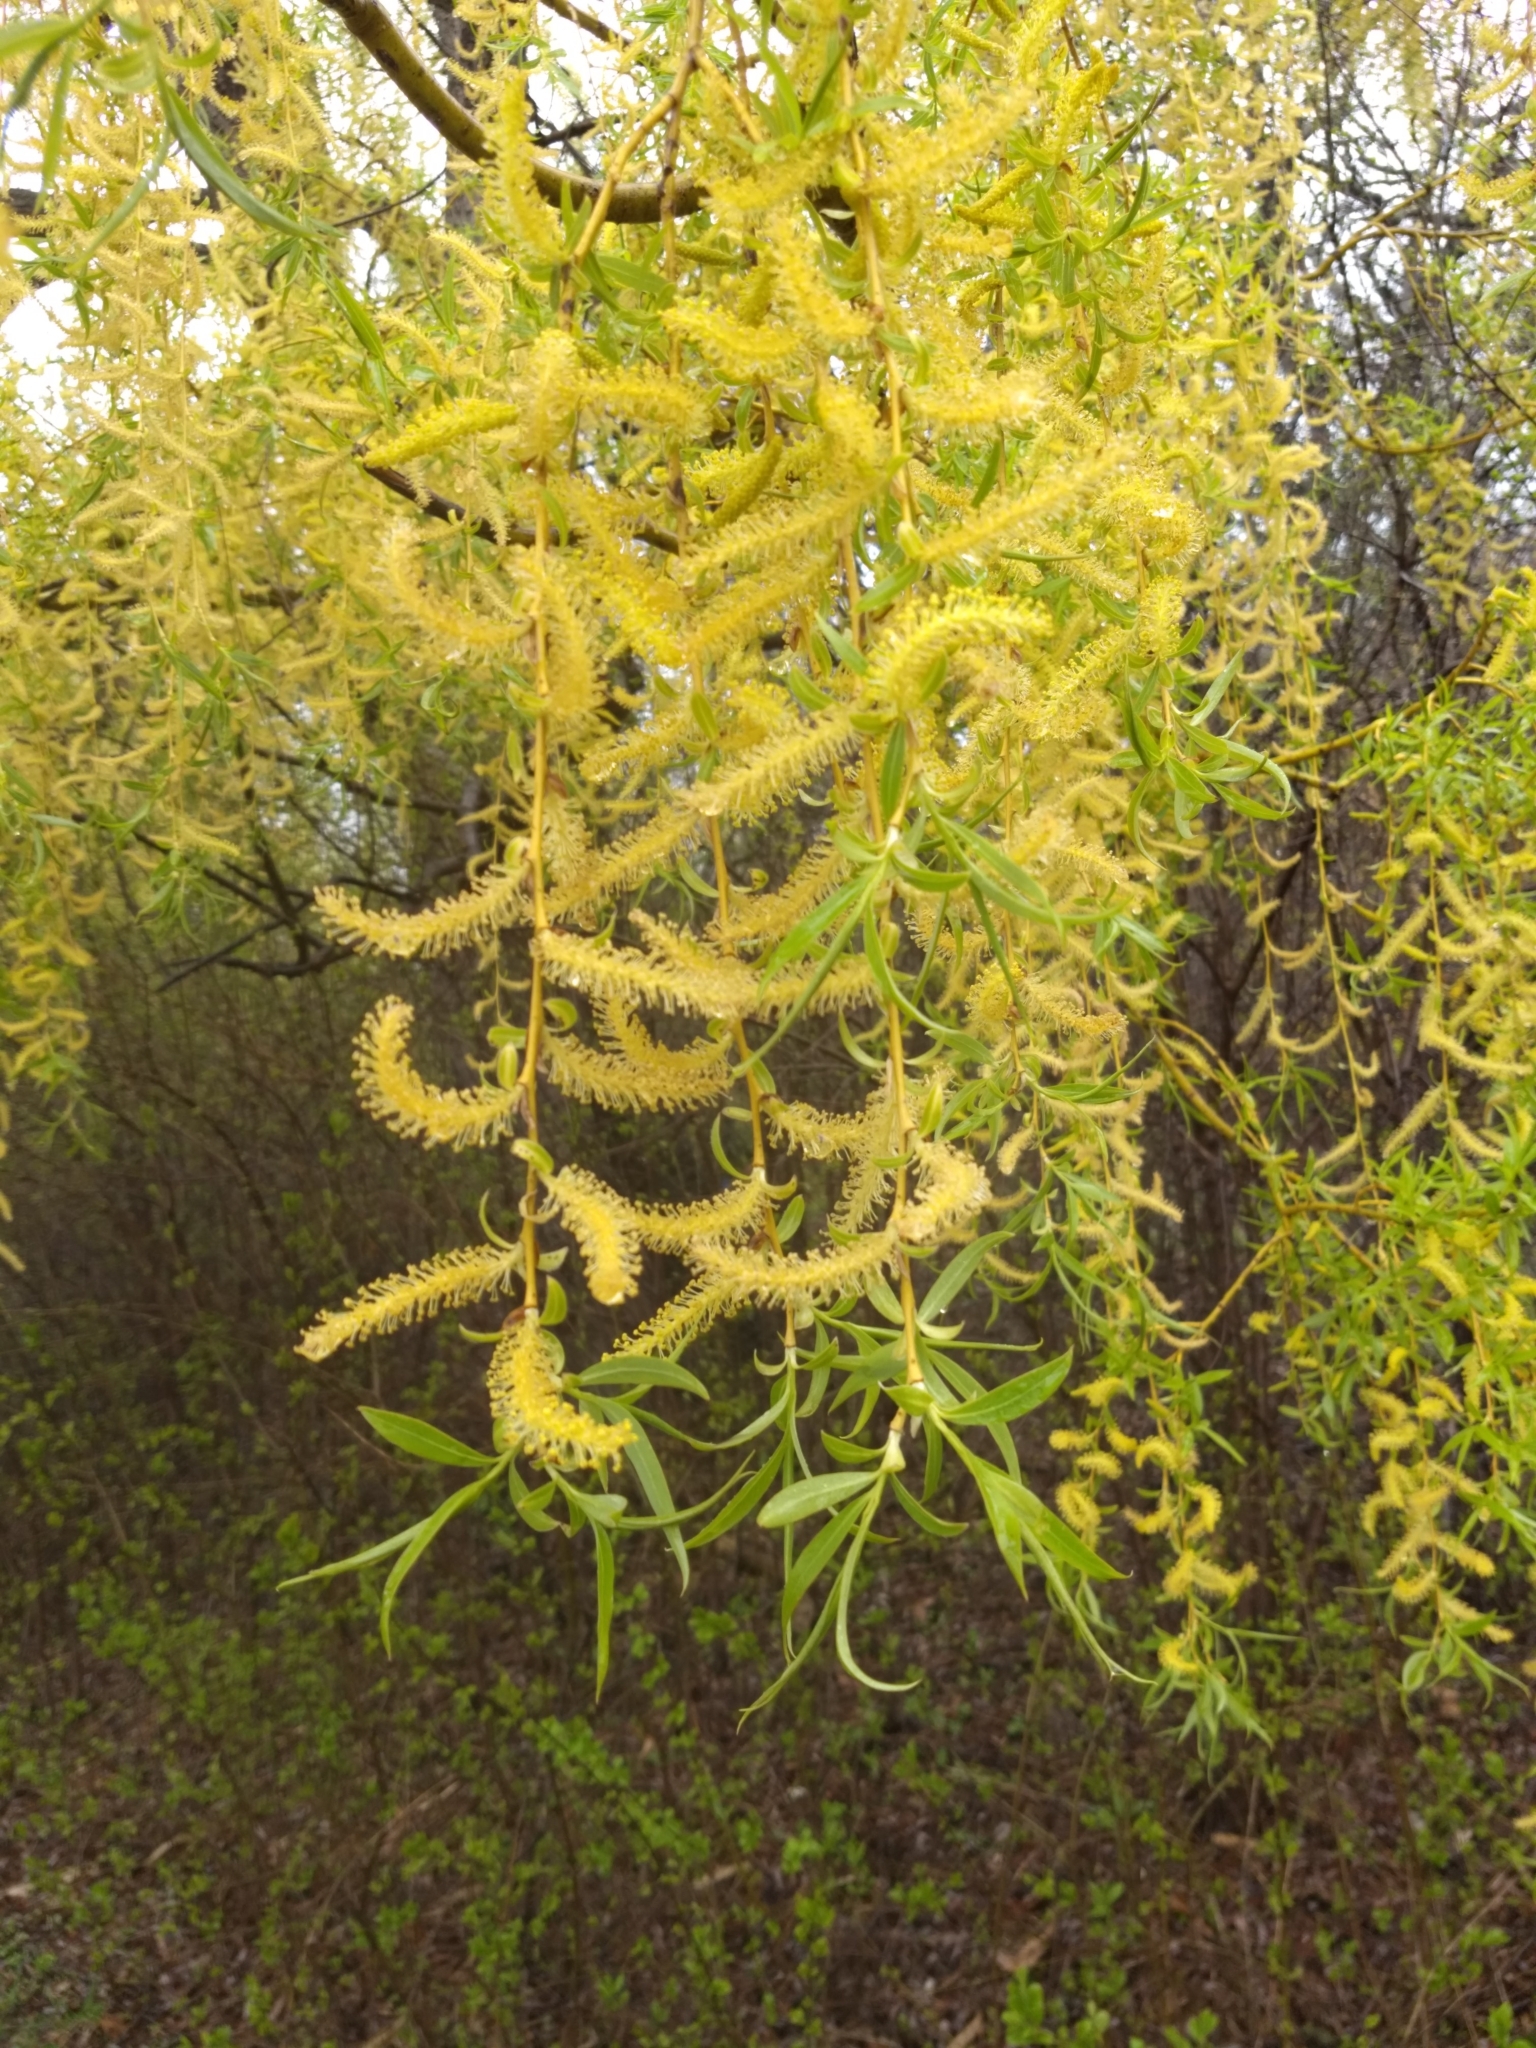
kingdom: Plantae
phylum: Tracheophyta
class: Magnoliopsida
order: Malpighiales
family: Salicaceae
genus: Salix
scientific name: Salix pendulina
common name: Wisconsin weeping willow
